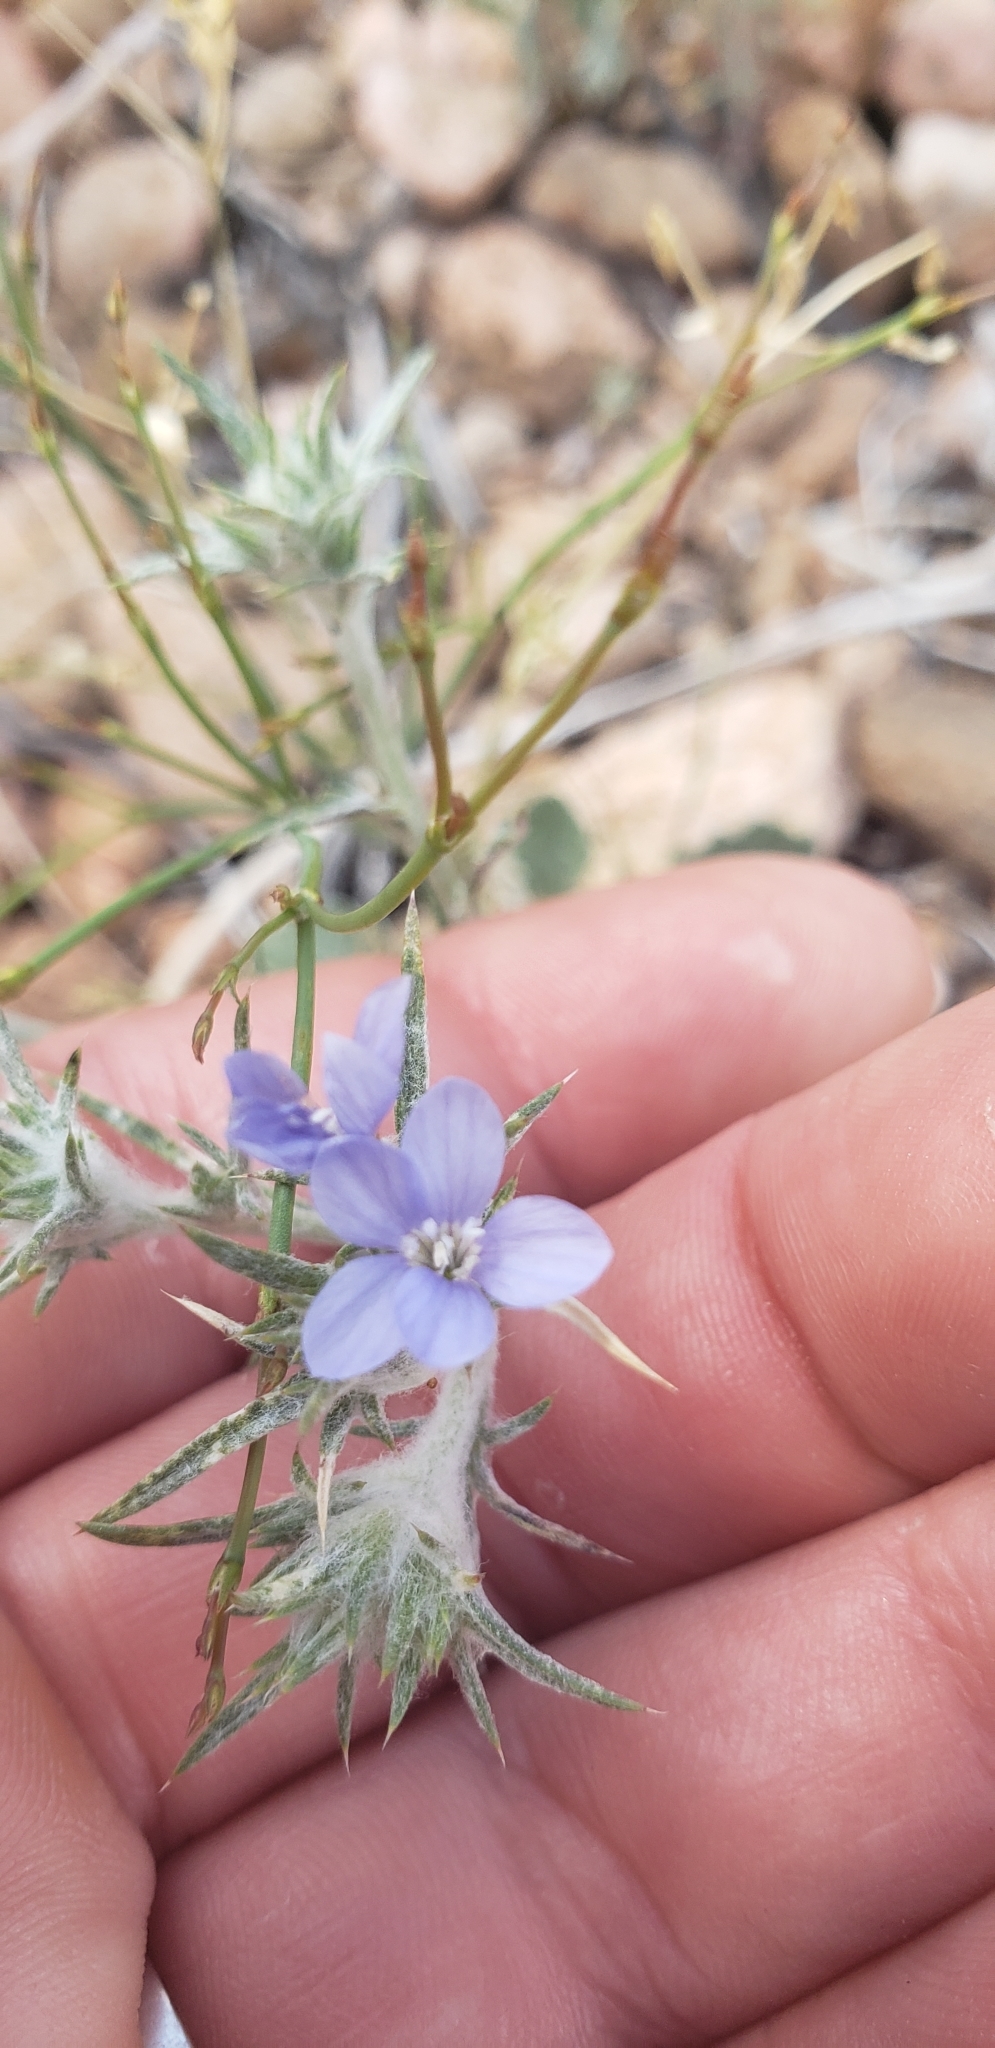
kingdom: Plantae
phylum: Tracheophyta
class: Magnoliopsida
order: Ericales
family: Polemoniaceae
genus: Eriastrum
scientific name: Eriastrum wilcoxii
